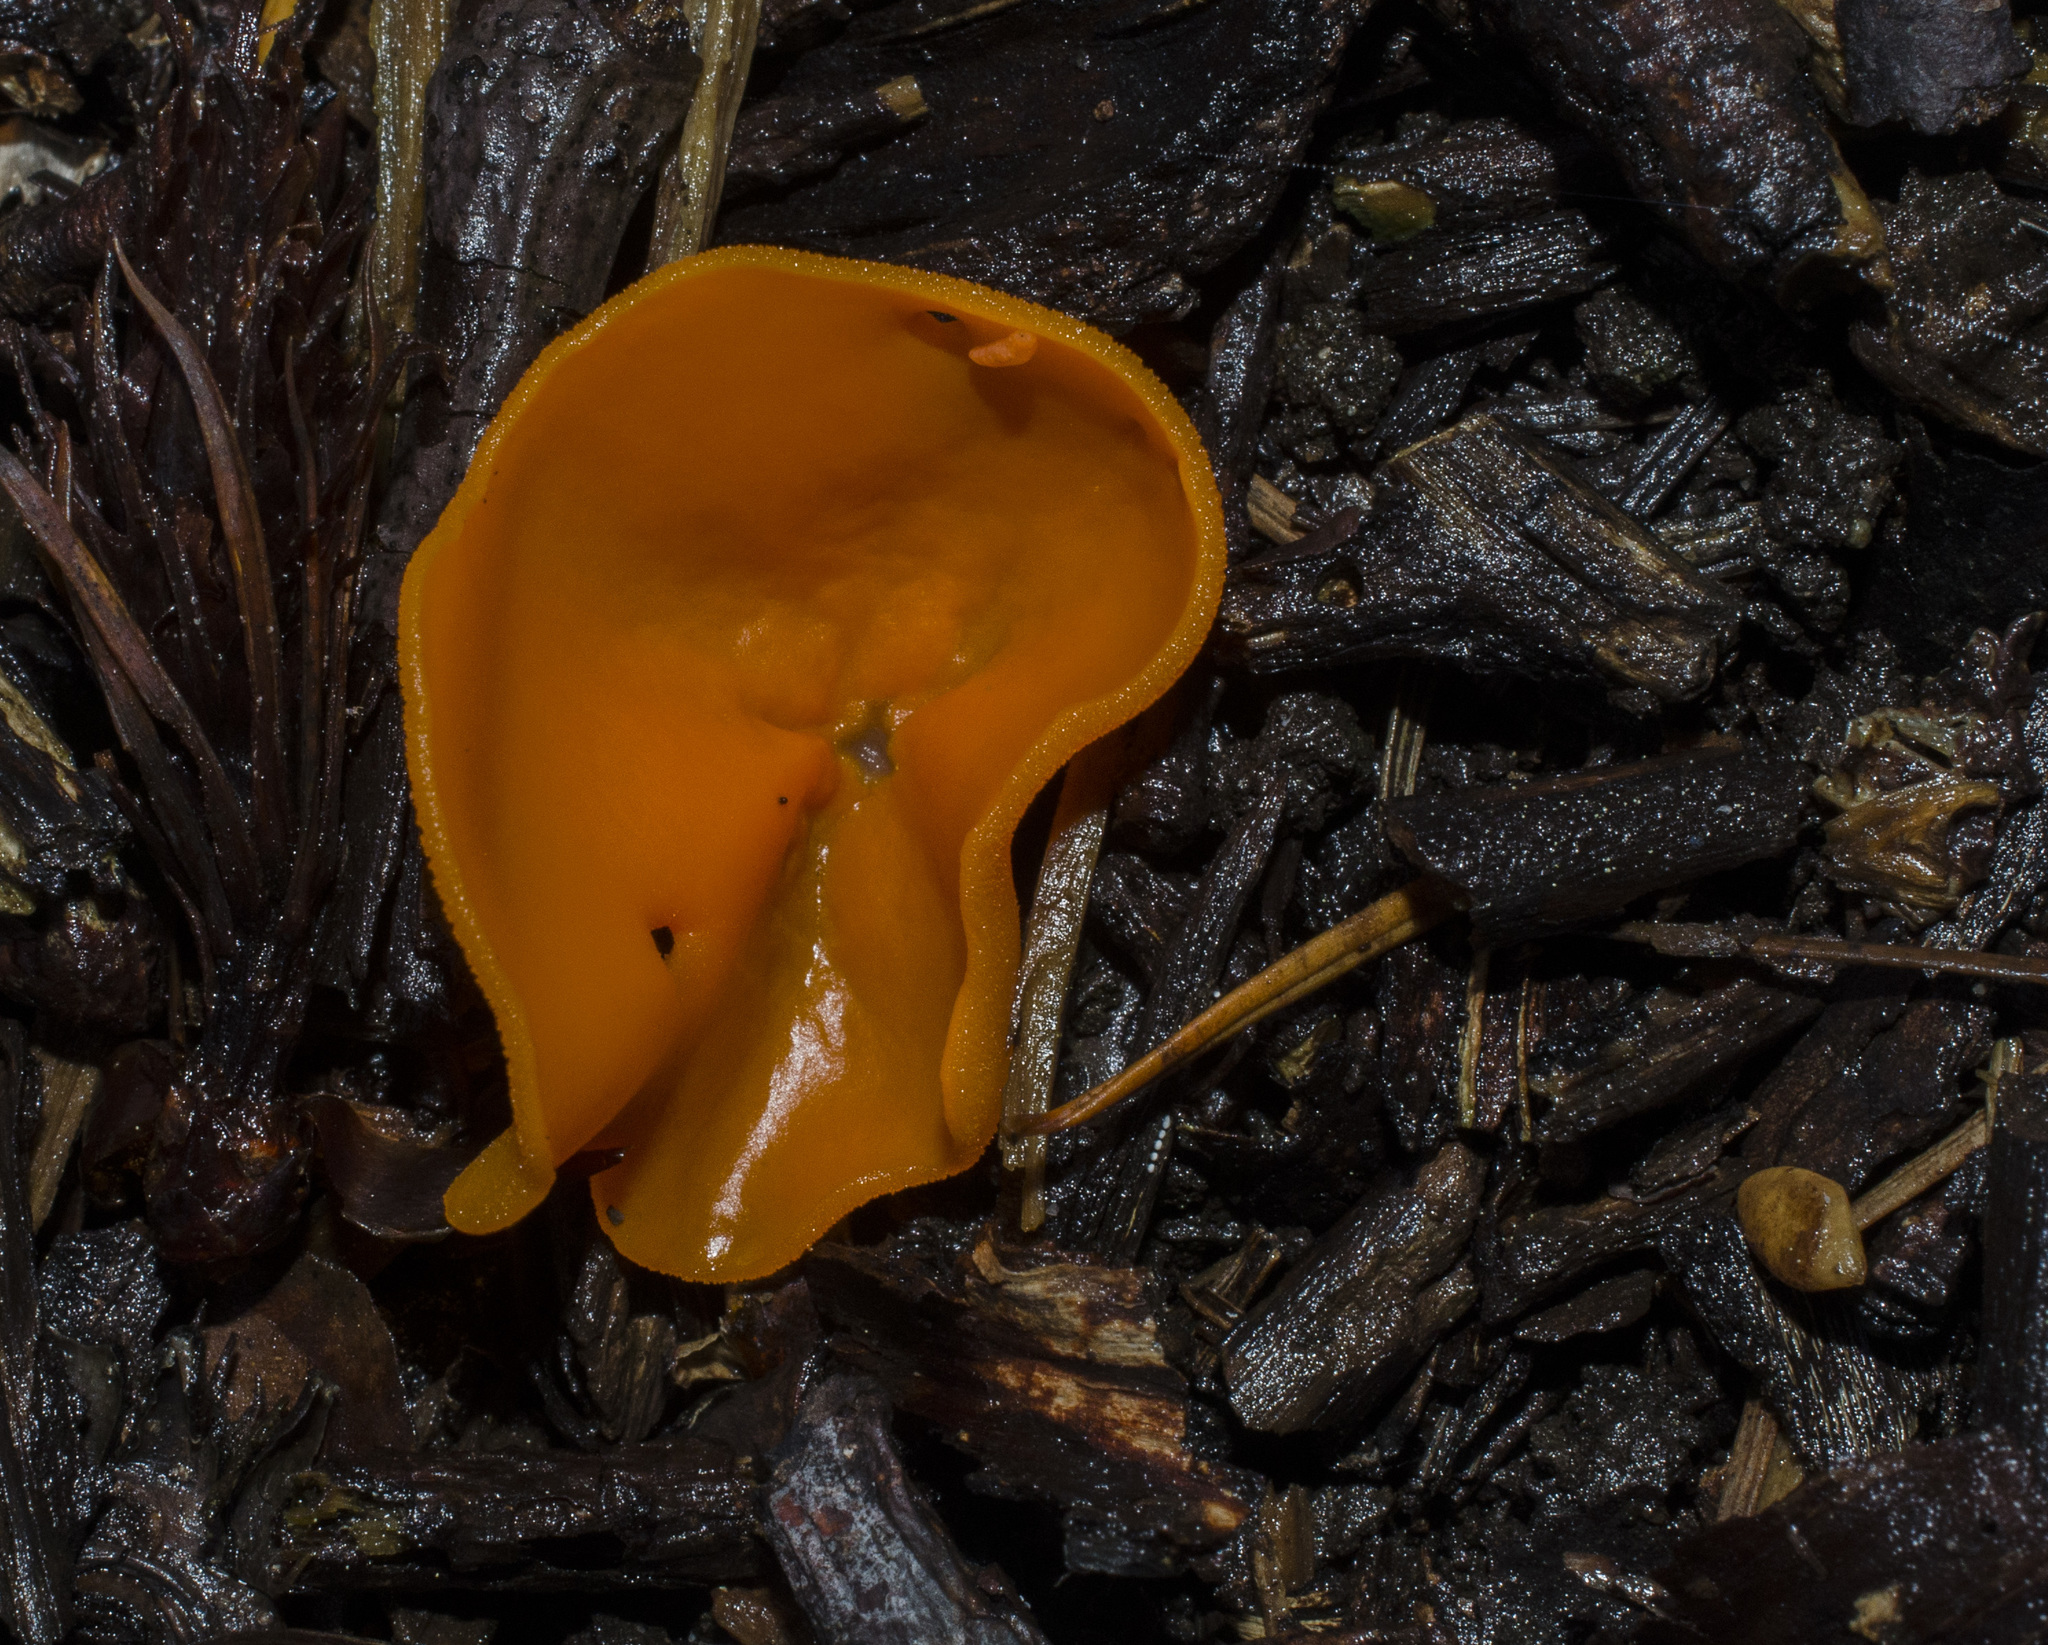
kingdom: Fungi
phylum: Ascomycota
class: Pezizomycetes
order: Pezizales
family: Pyronemataceae
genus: Aleuria
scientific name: Aleuria aurantia
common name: Orange peel fungus
